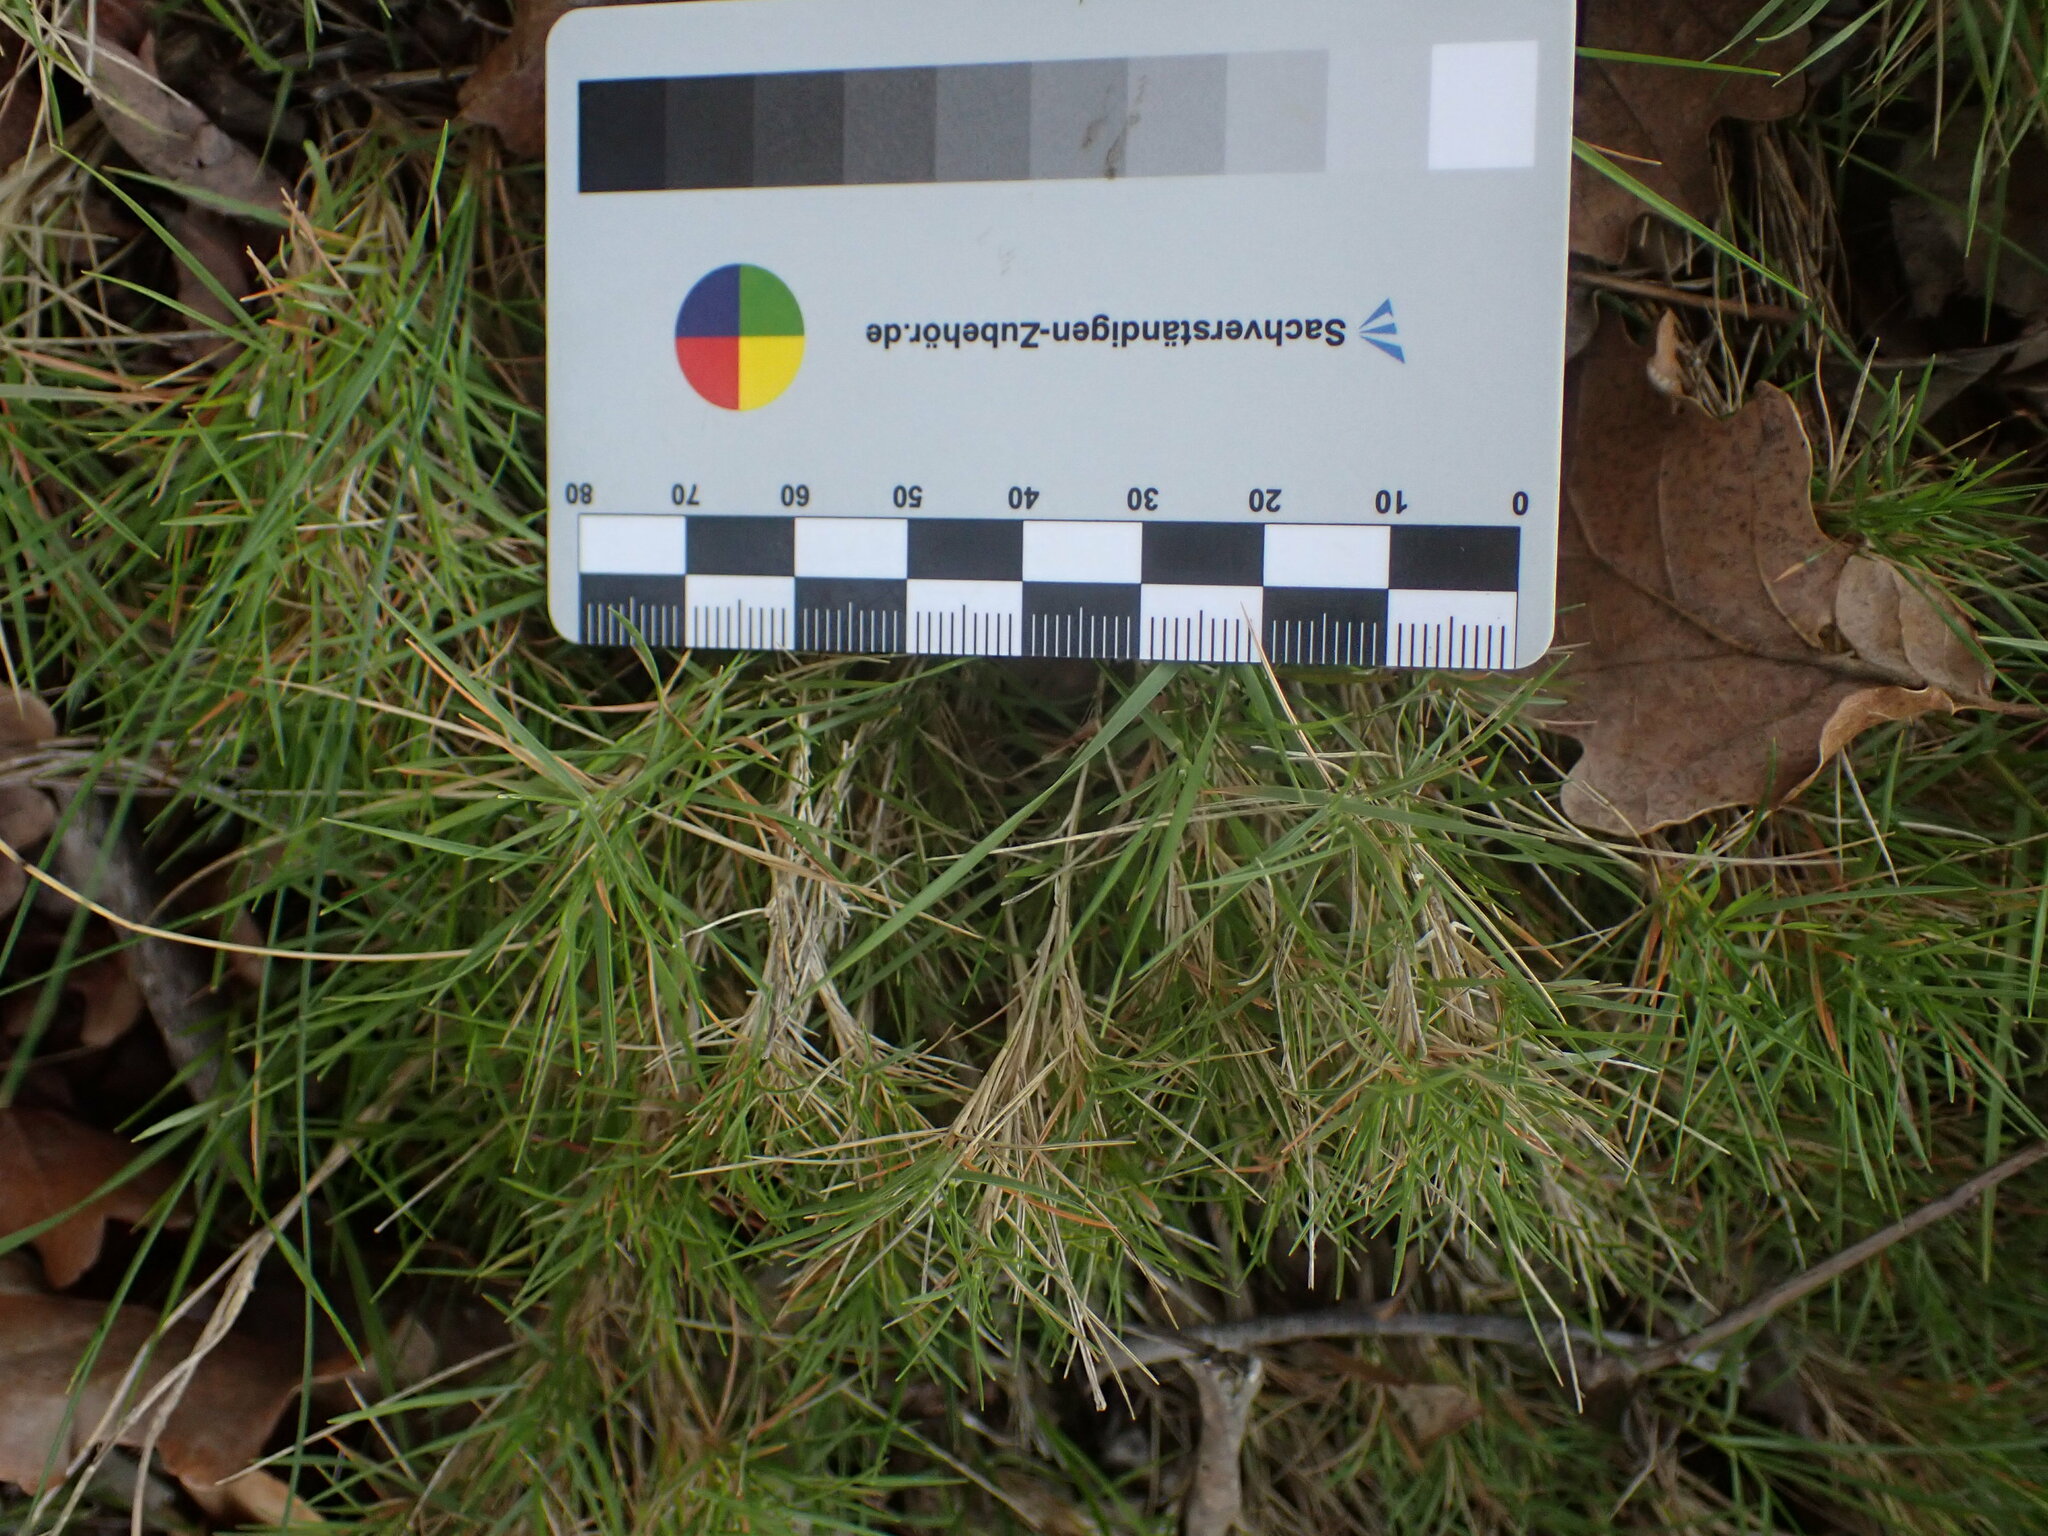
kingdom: Plantae
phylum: Tracheophyta
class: Liliopsida
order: Poales
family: Poaceae
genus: Brachypodium
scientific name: Brachypodium retusum
